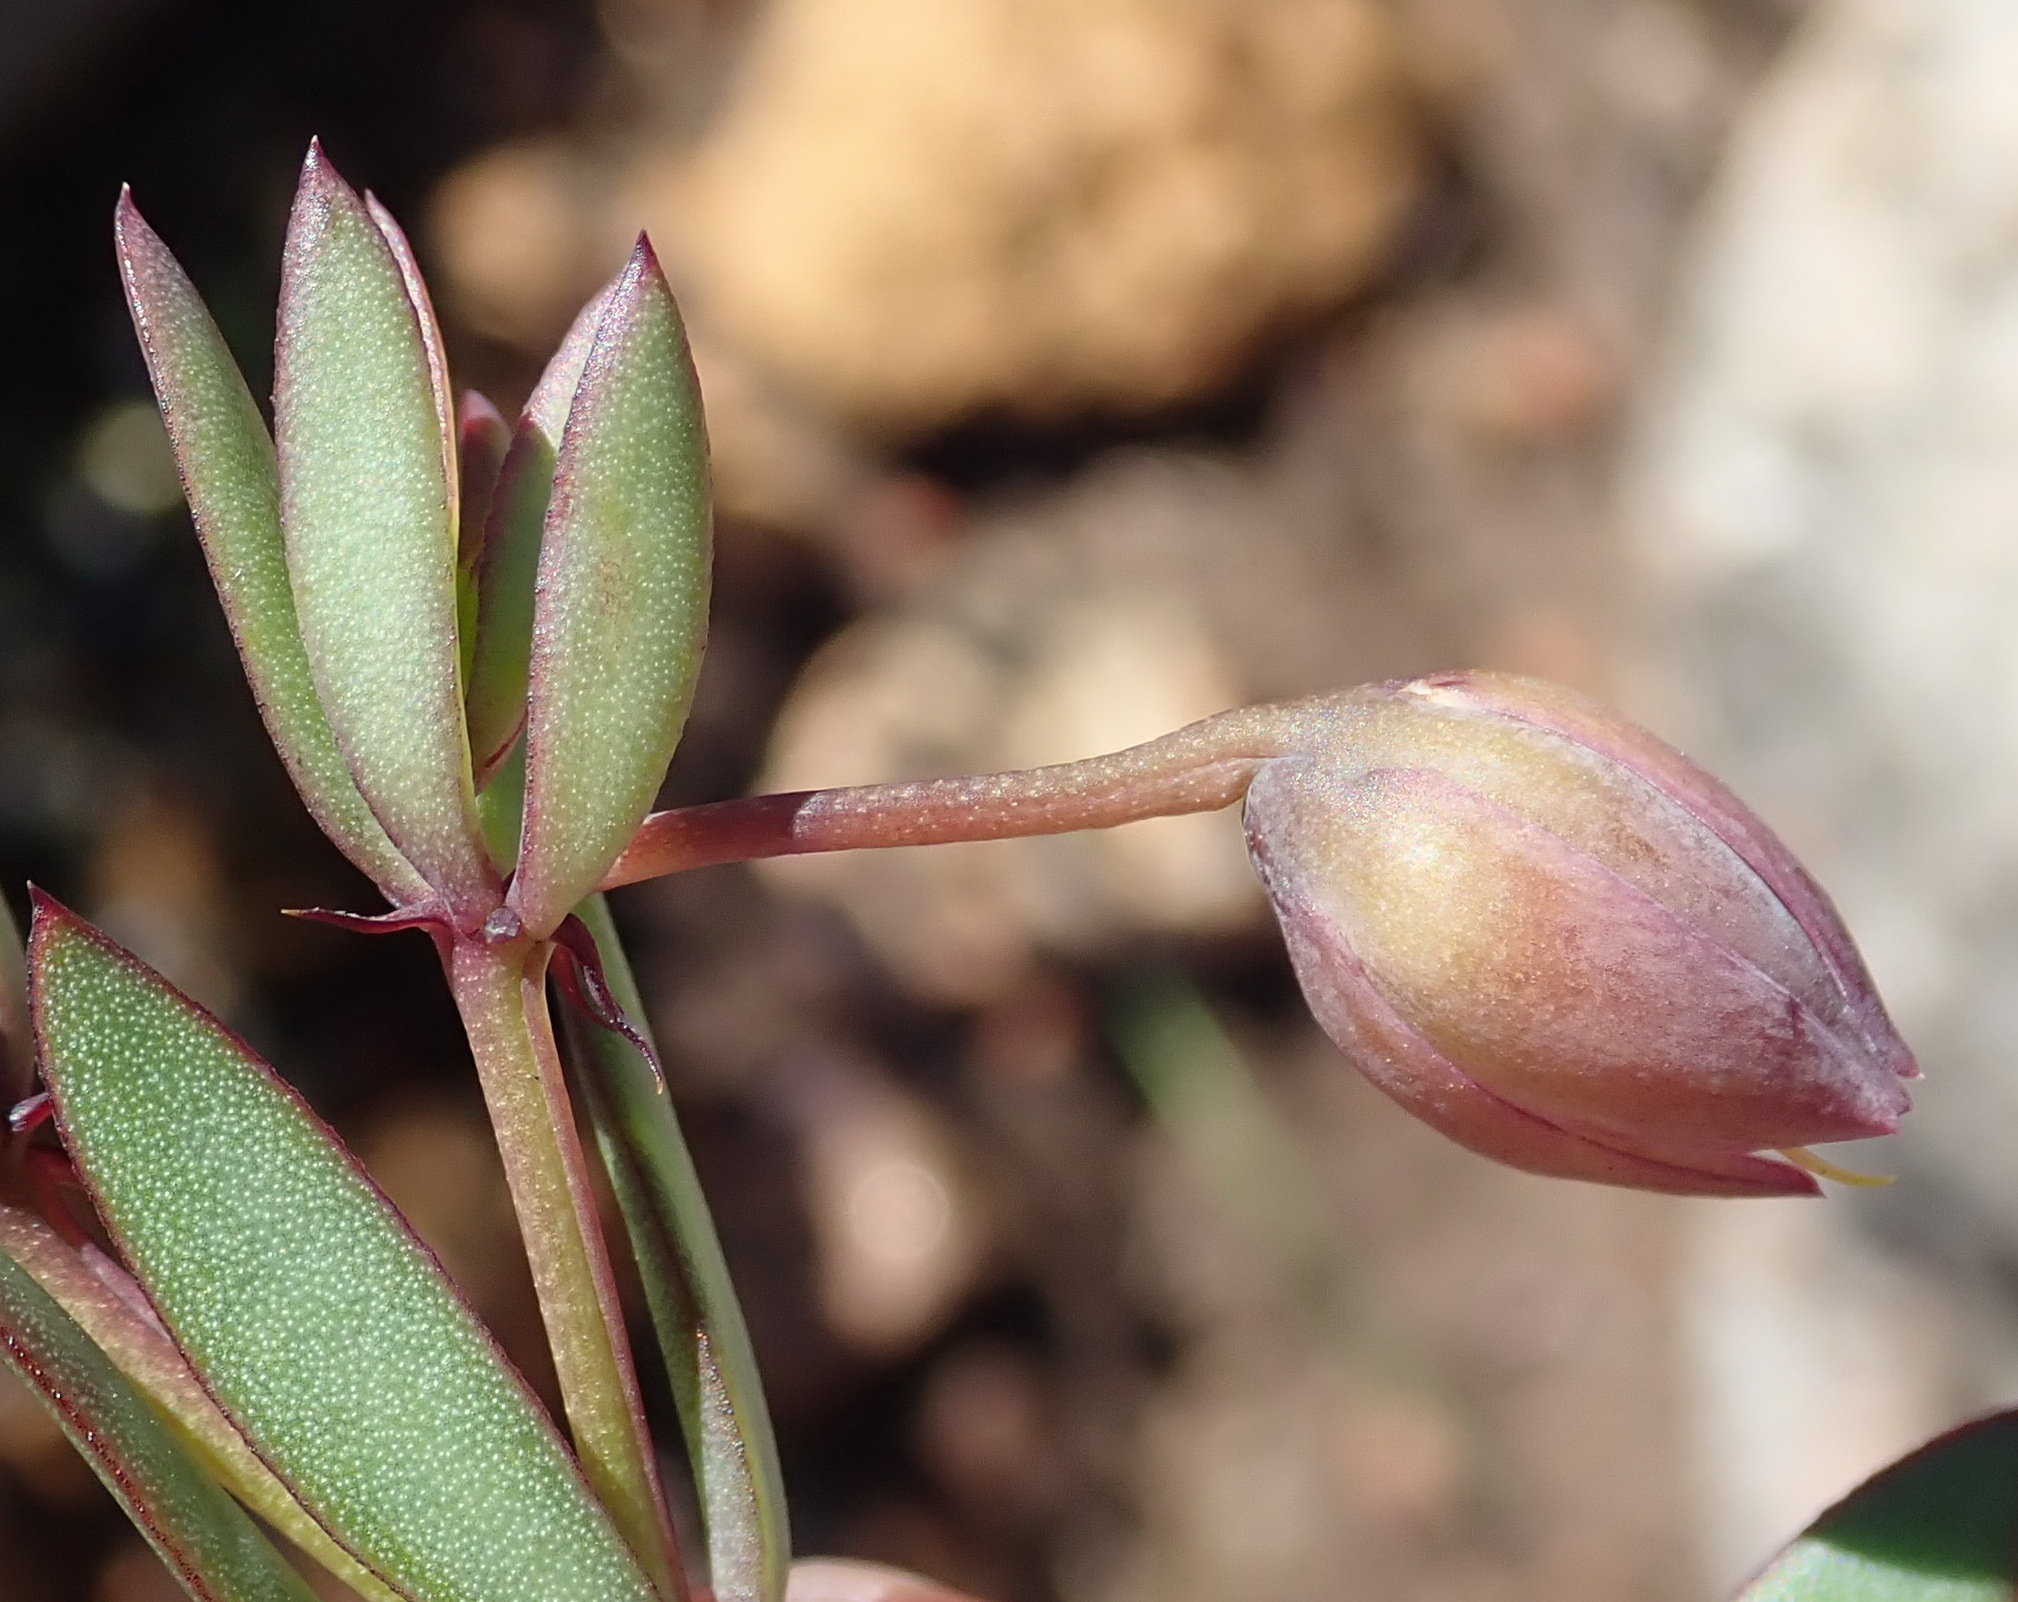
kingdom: Plantae
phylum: Tracheophyta
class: Magnoliopsida
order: Zygophyllales
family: Zygophyllaceae
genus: Roepera
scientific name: Roepera fulva
